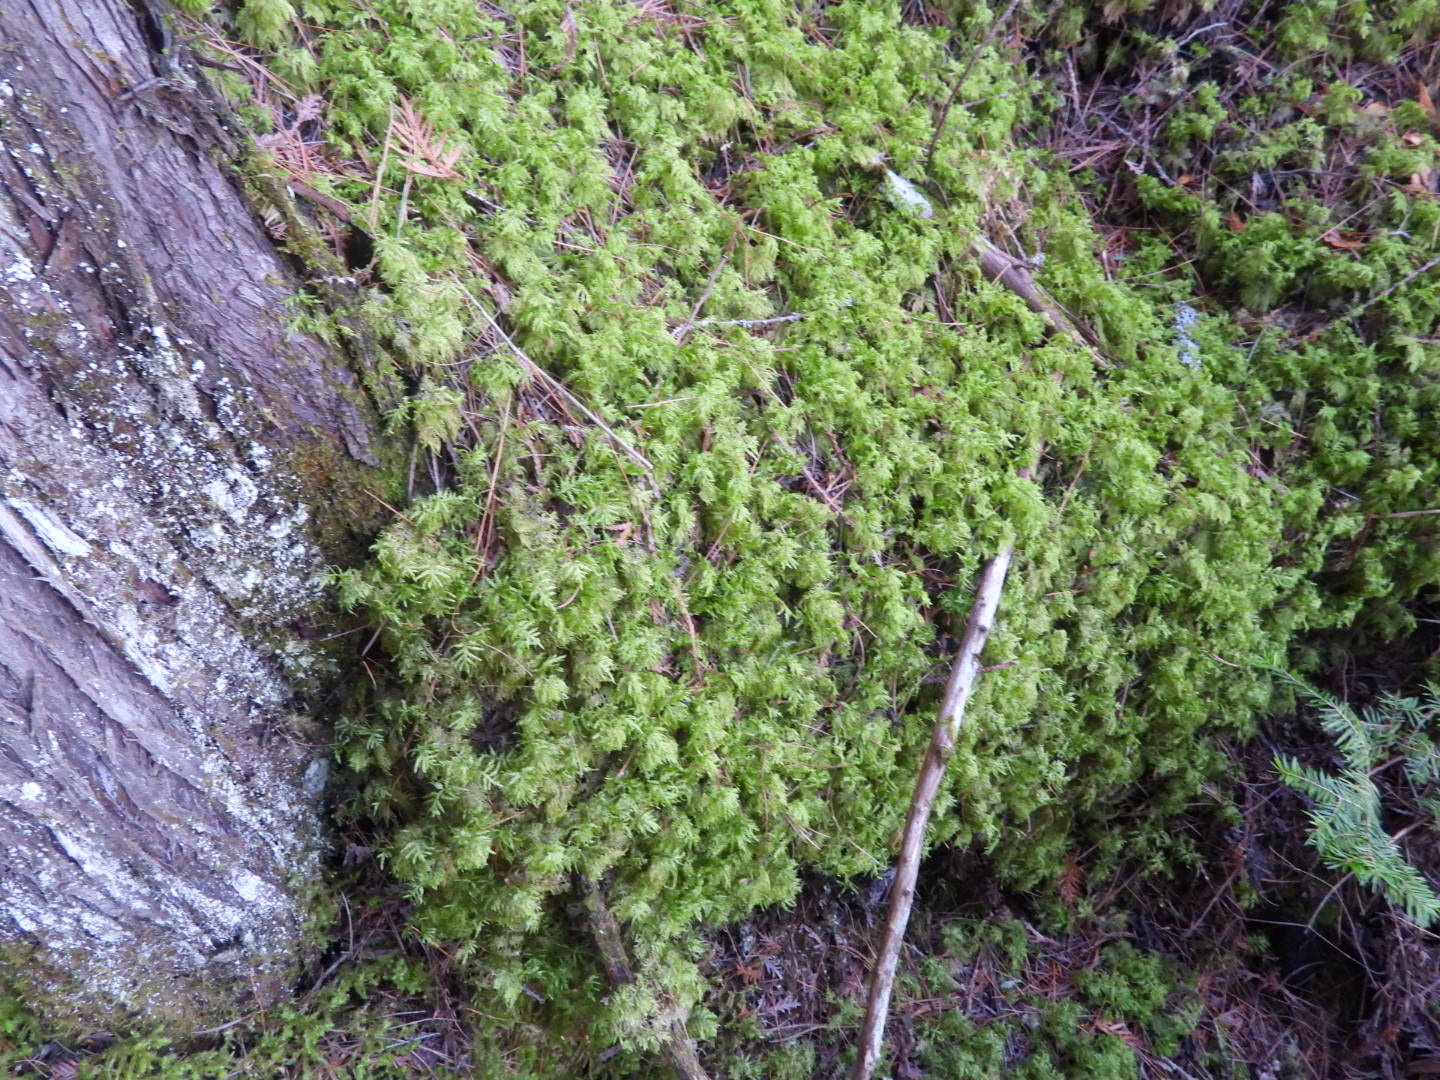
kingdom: Plantae
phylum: Bryophyta
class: Bryopsida
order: Hypnales
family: Hylocomiaceae
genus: Hylocomium
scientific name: Hylocomium splendens
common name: Stairstep moss
